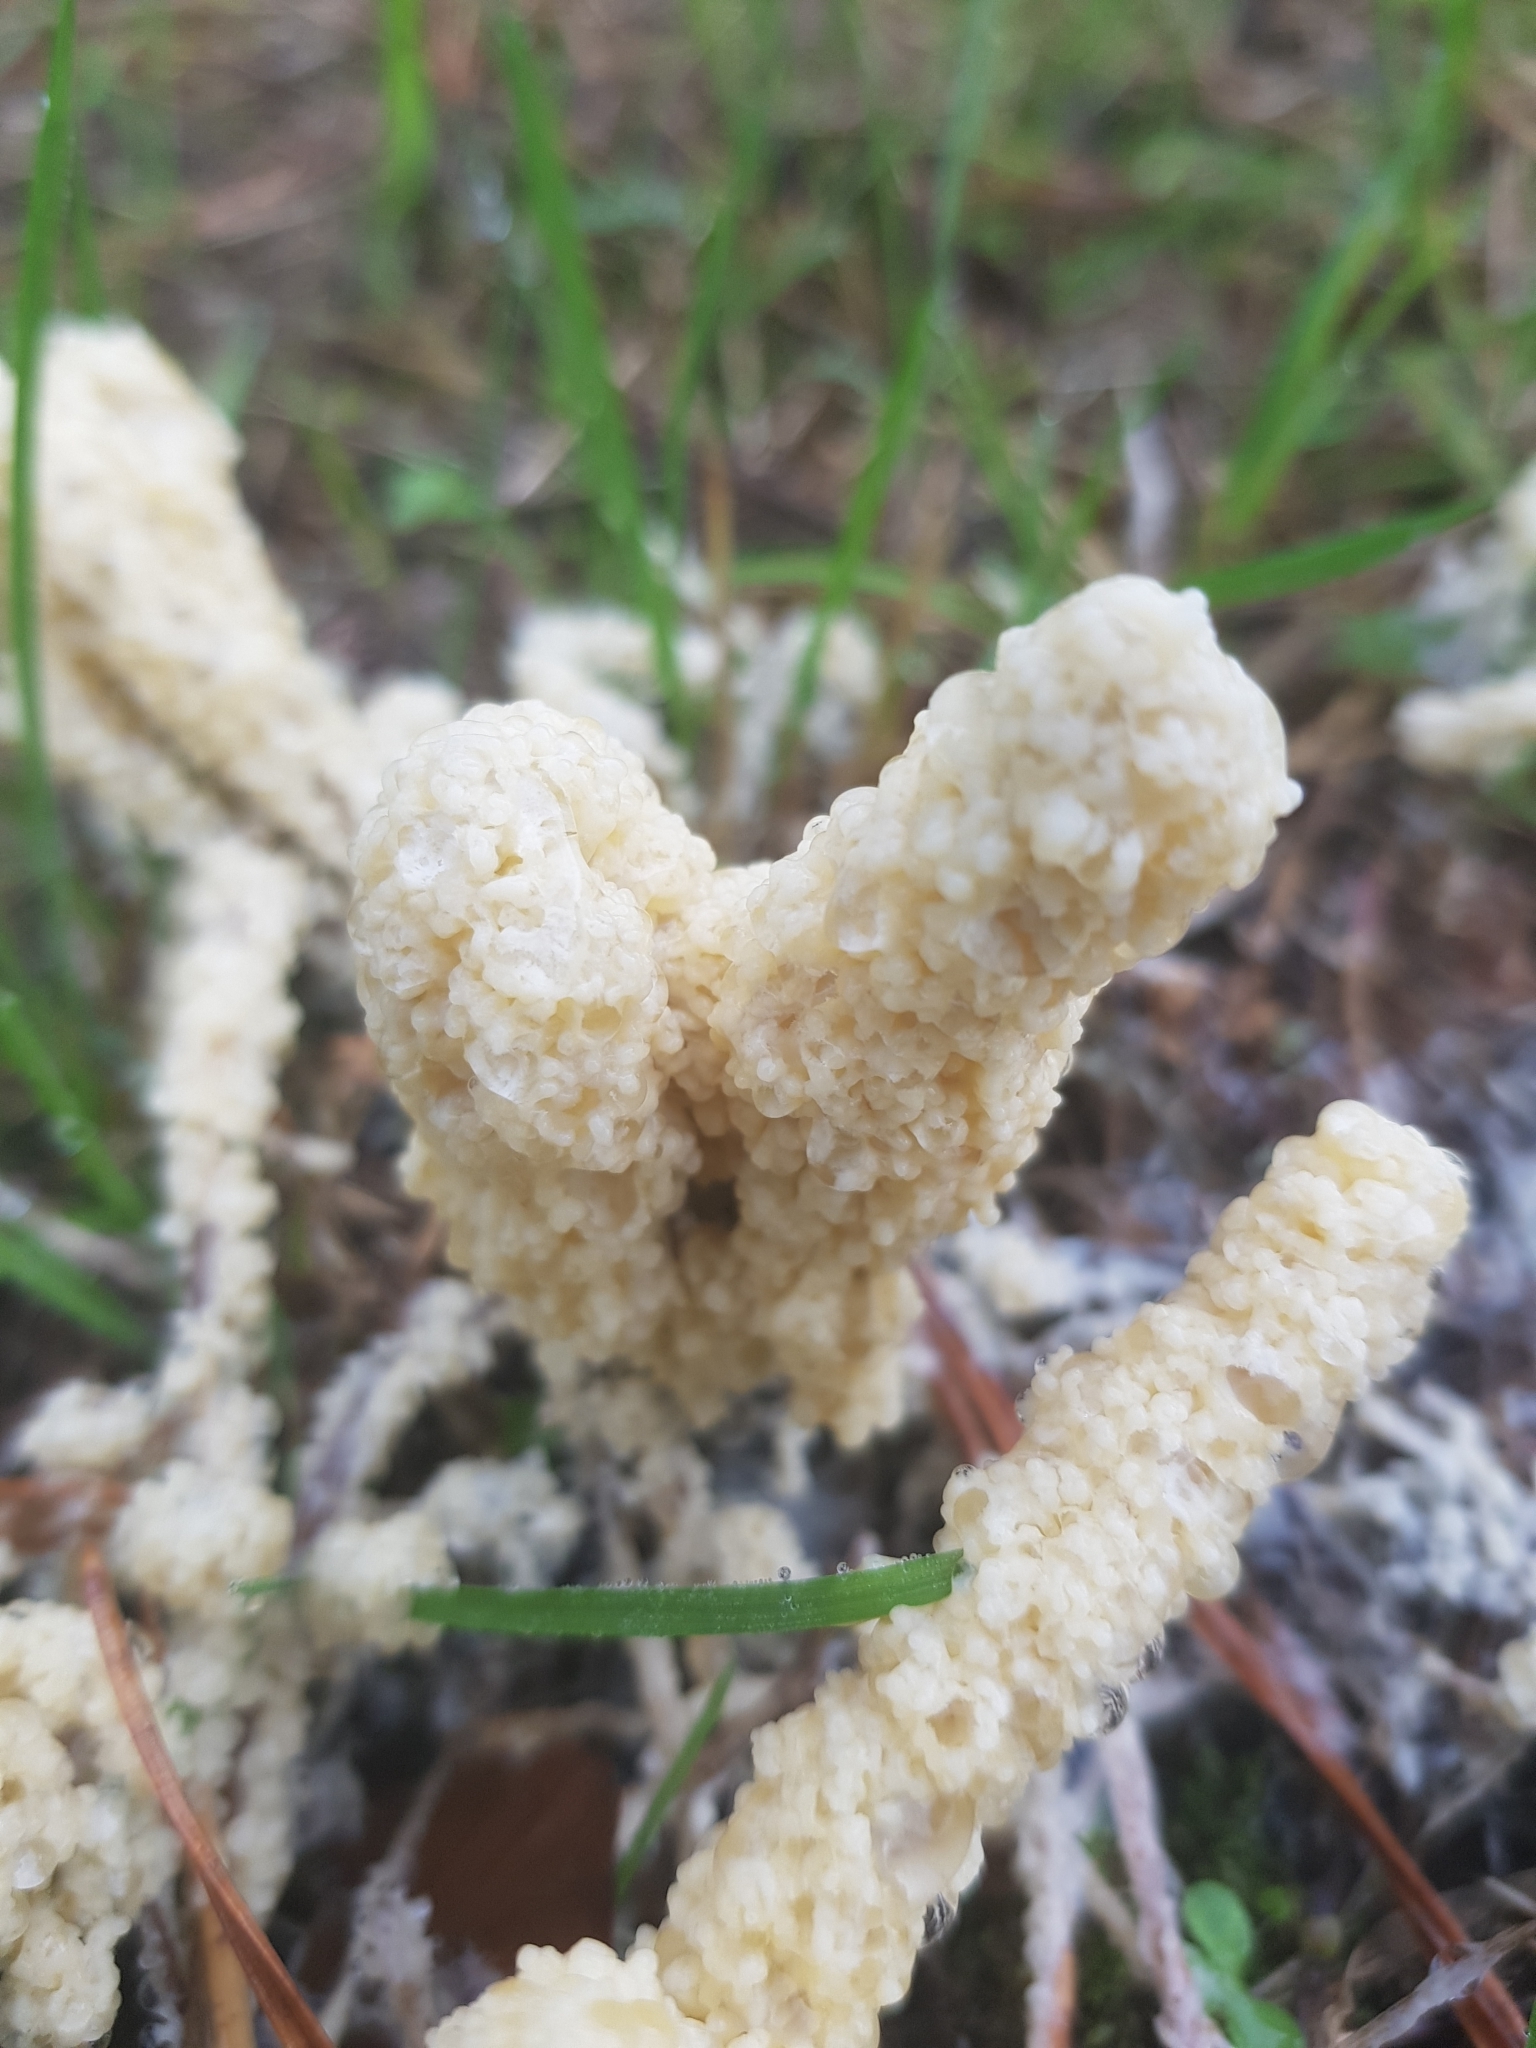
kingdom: Protozoa
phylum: Mycetozoa
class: Myxomycetes
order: Physarales
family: Physaraceae
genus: Didymium
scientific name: Didymium
